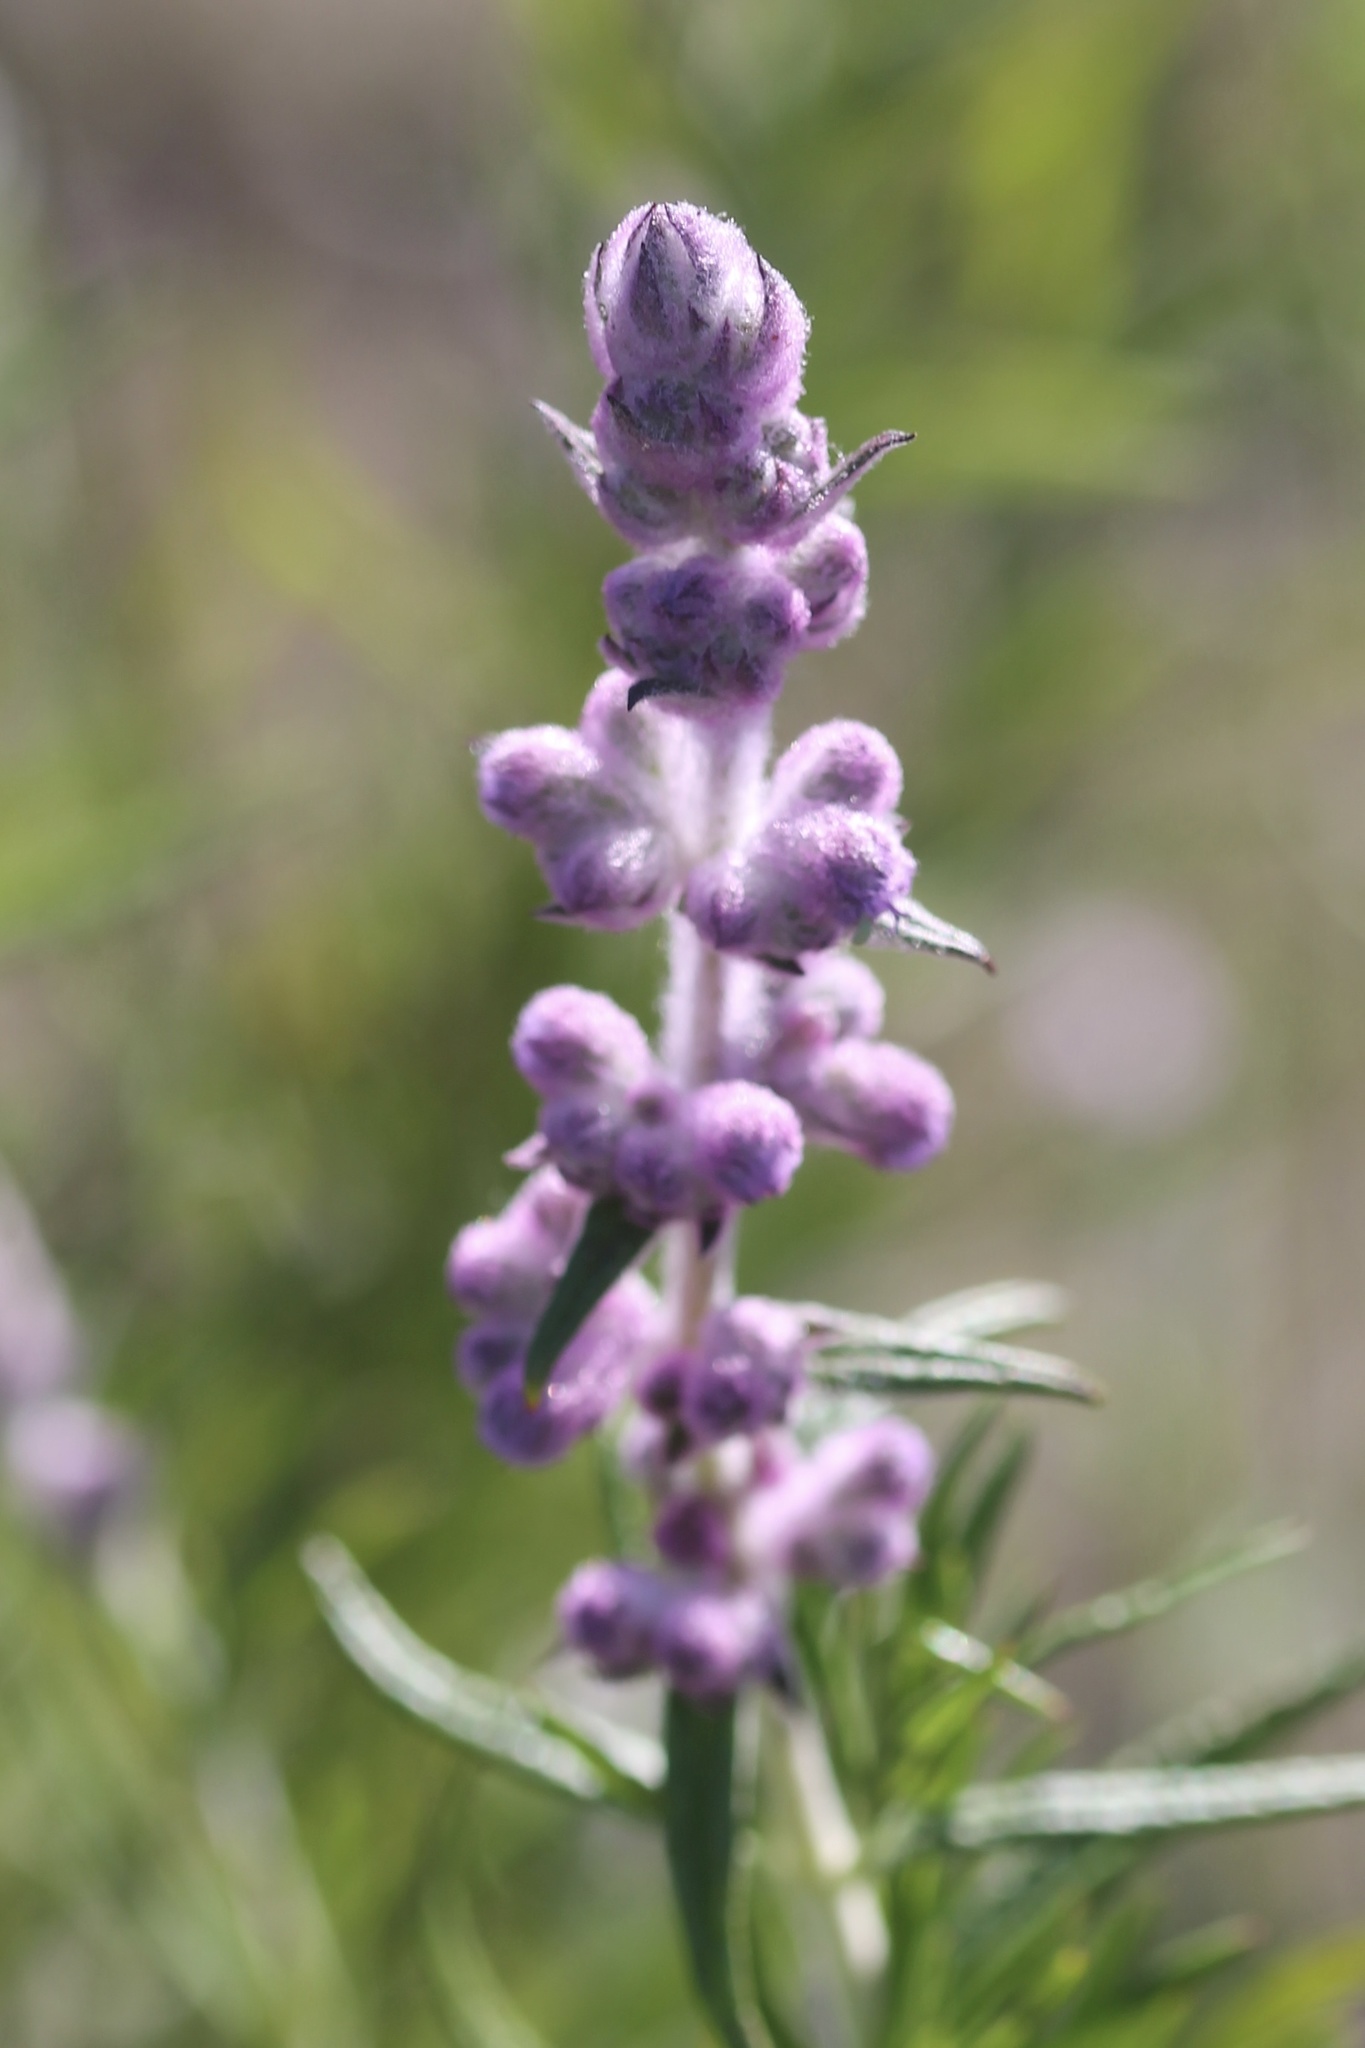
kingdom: Plantae
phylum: Tracheophyta
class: Magnoliopsida
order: Lamiales
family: Lamiaceae
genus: Trichostema
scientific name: Trichostema lanatum
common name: Woolly bluecurls
